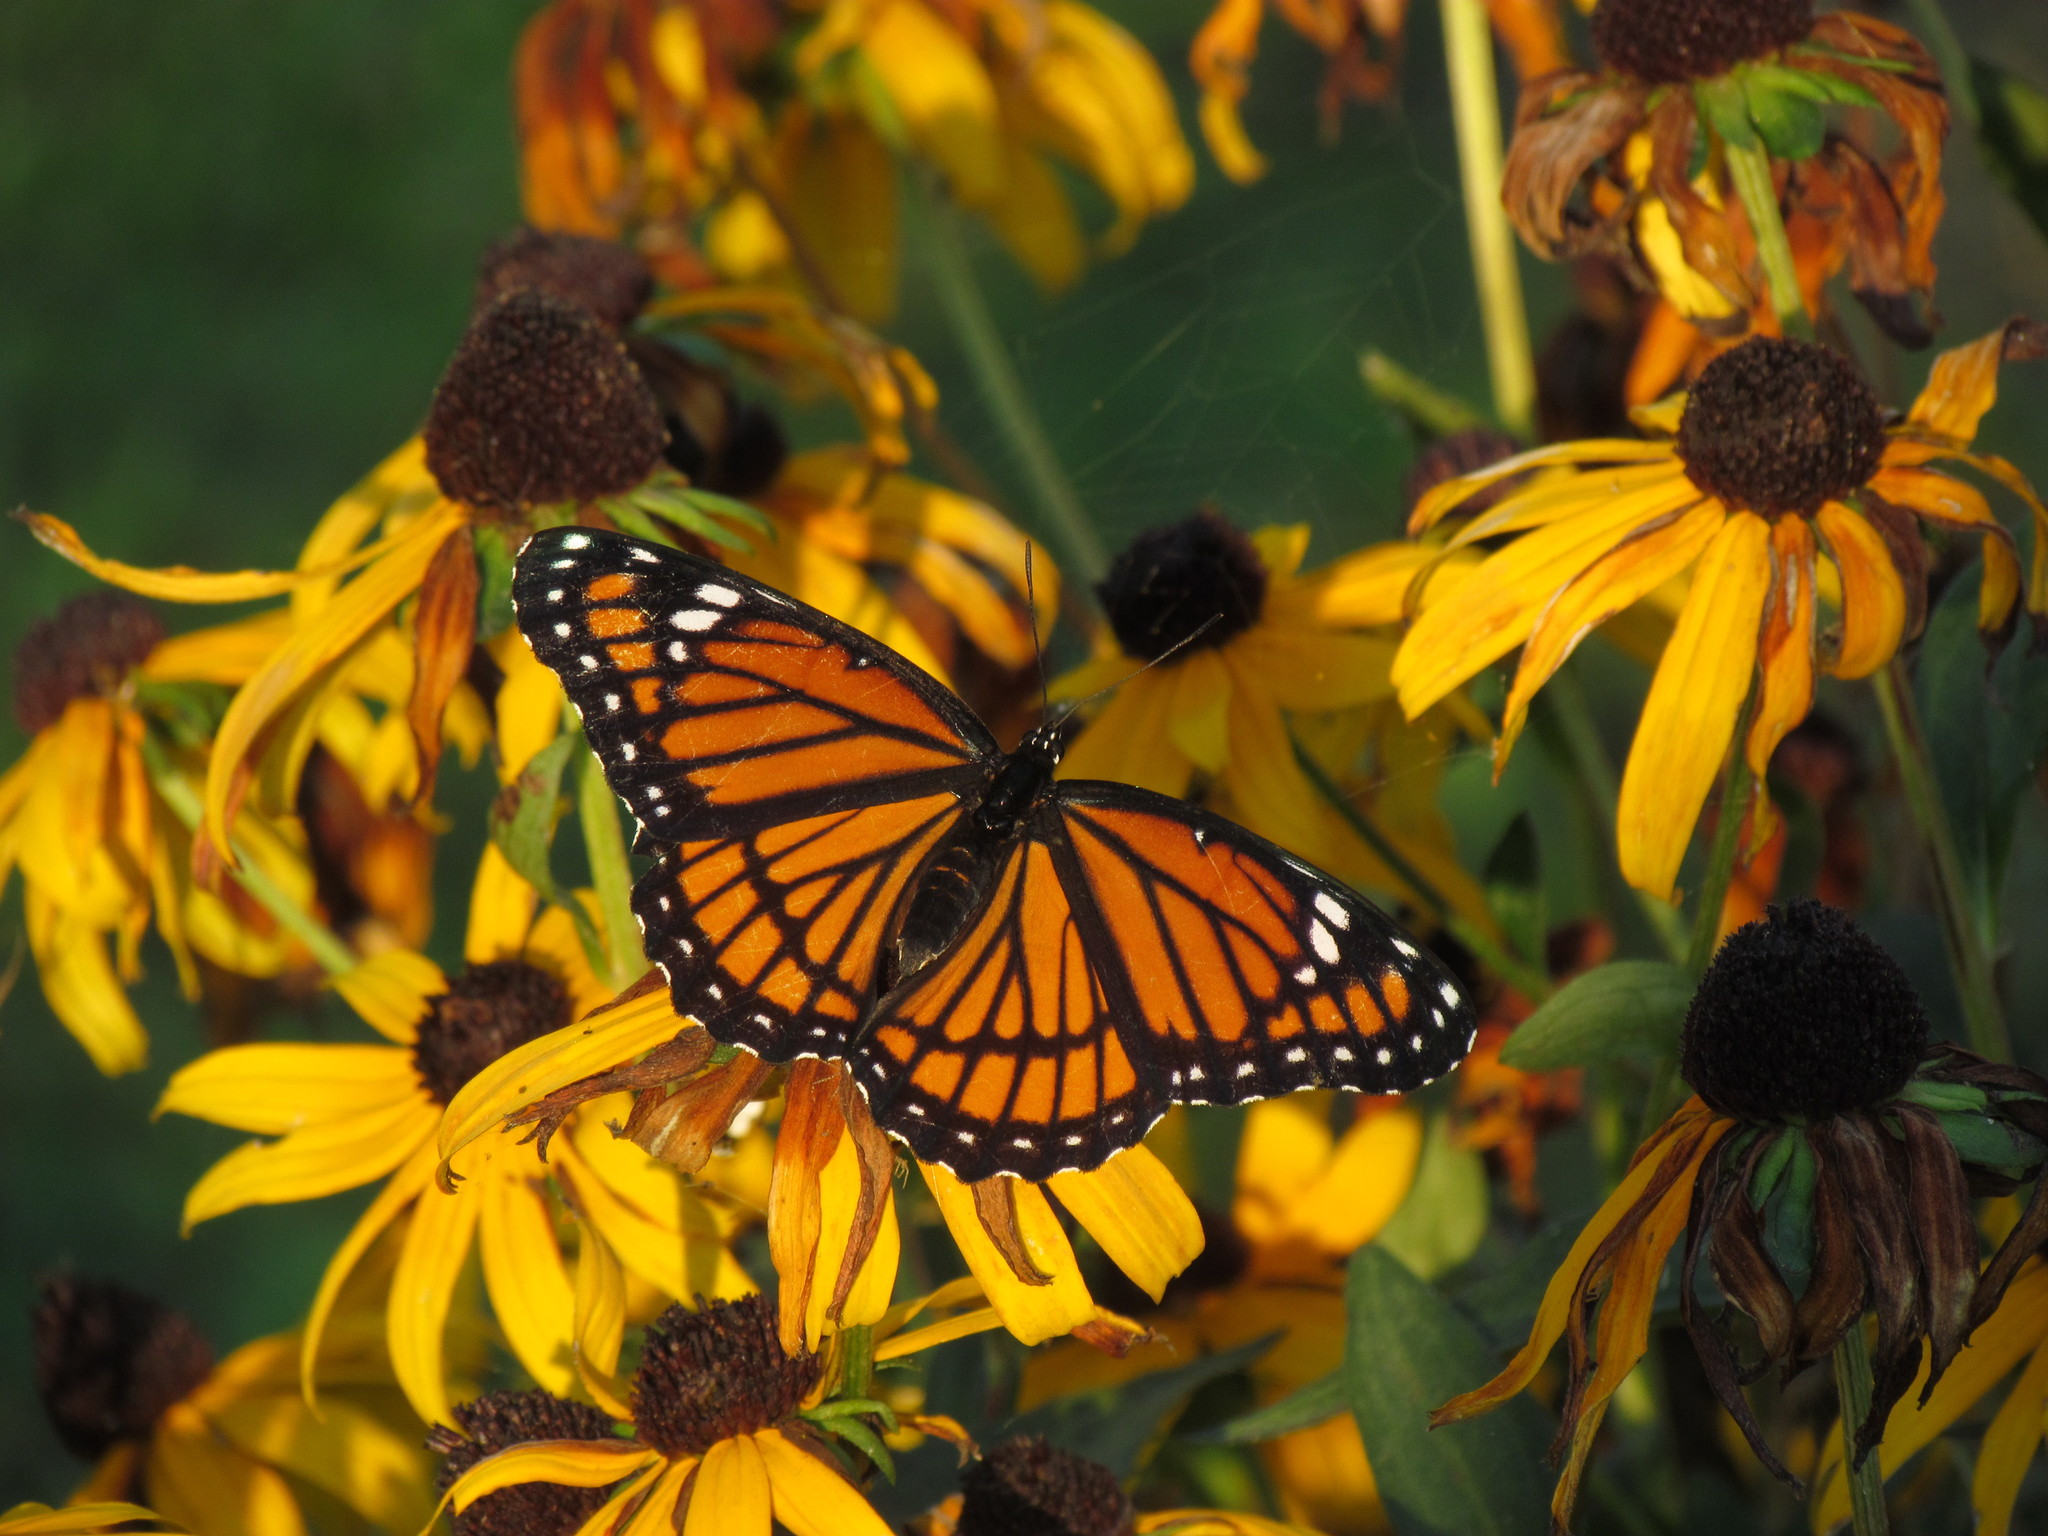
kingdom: Animalia
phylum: Arthropoda
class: Insecta
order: Lepidoptera
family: Nymphalidae
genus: Limenitis
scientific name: Limenitis archippus
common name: Viceroy
